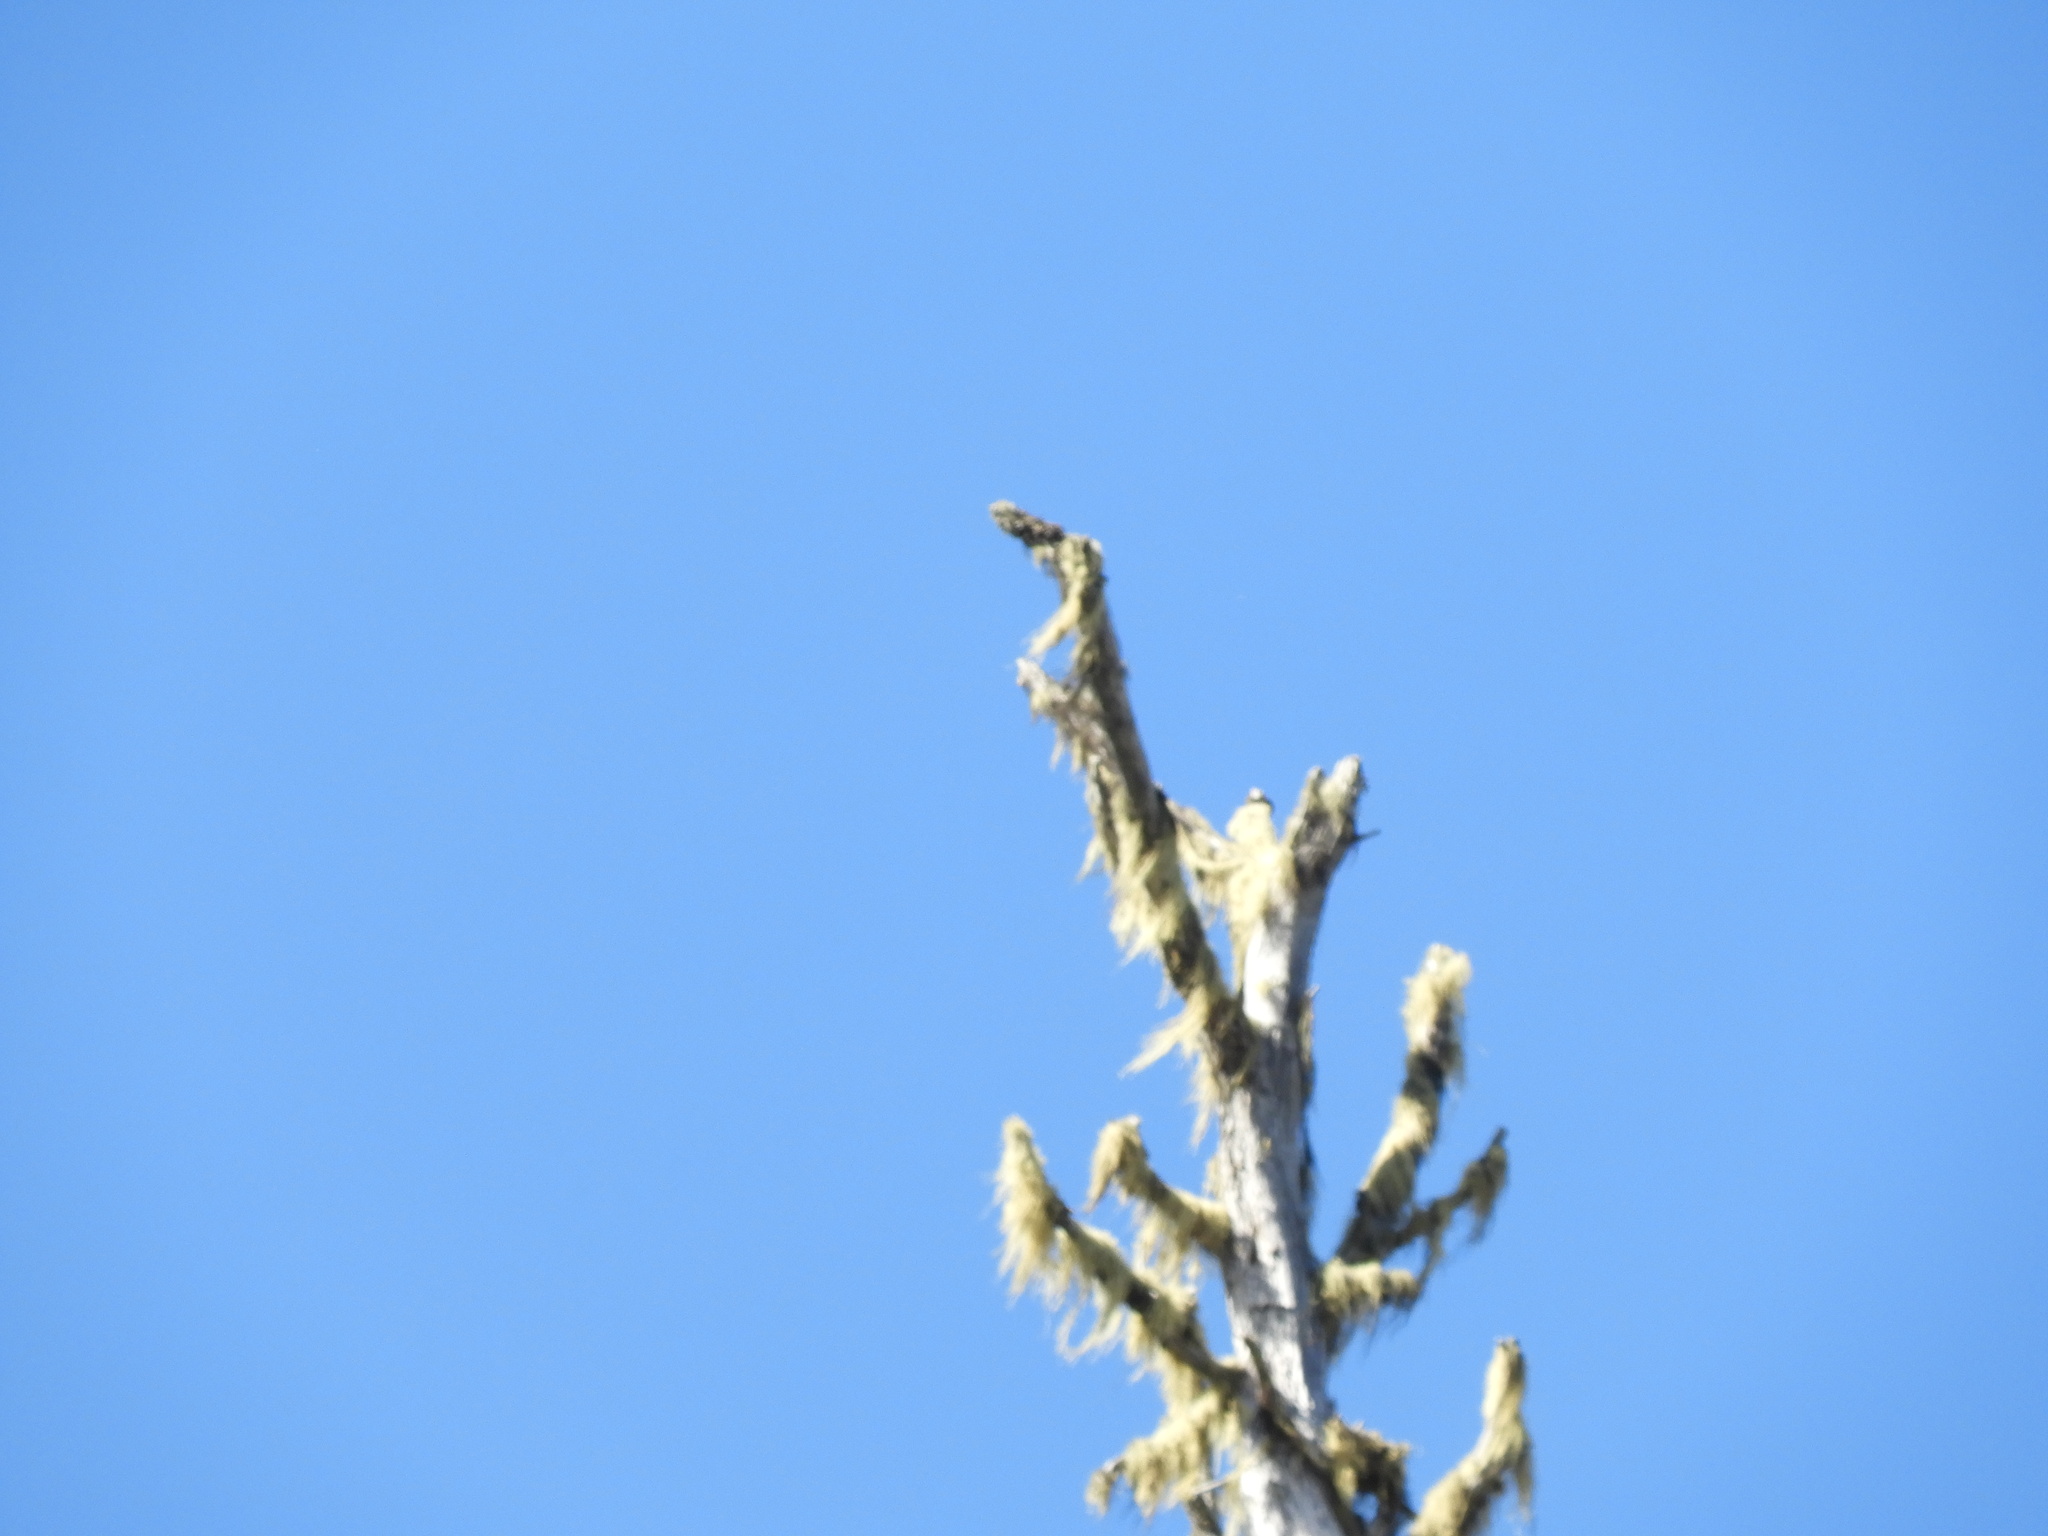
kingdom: Fungi
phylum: Ascomycota
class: Lecanoromycetes
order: Caliciales
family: Caliciaceae
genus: Acroscyphus
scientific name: Acroscyphus sphaerophoroides
